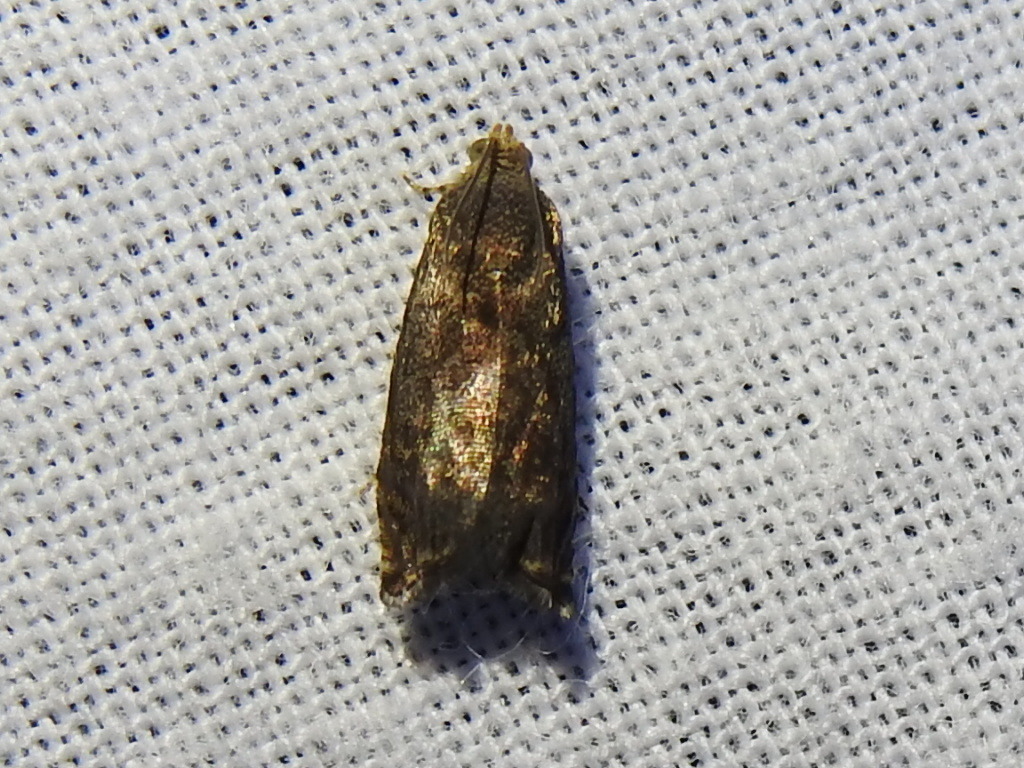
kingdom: Animalia
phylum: Arthropoda
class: Insecta
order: Lepidoptera
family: Tortricidae
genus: Cydia
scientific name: Cydia caryana
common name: Hickory shuckworm moth
